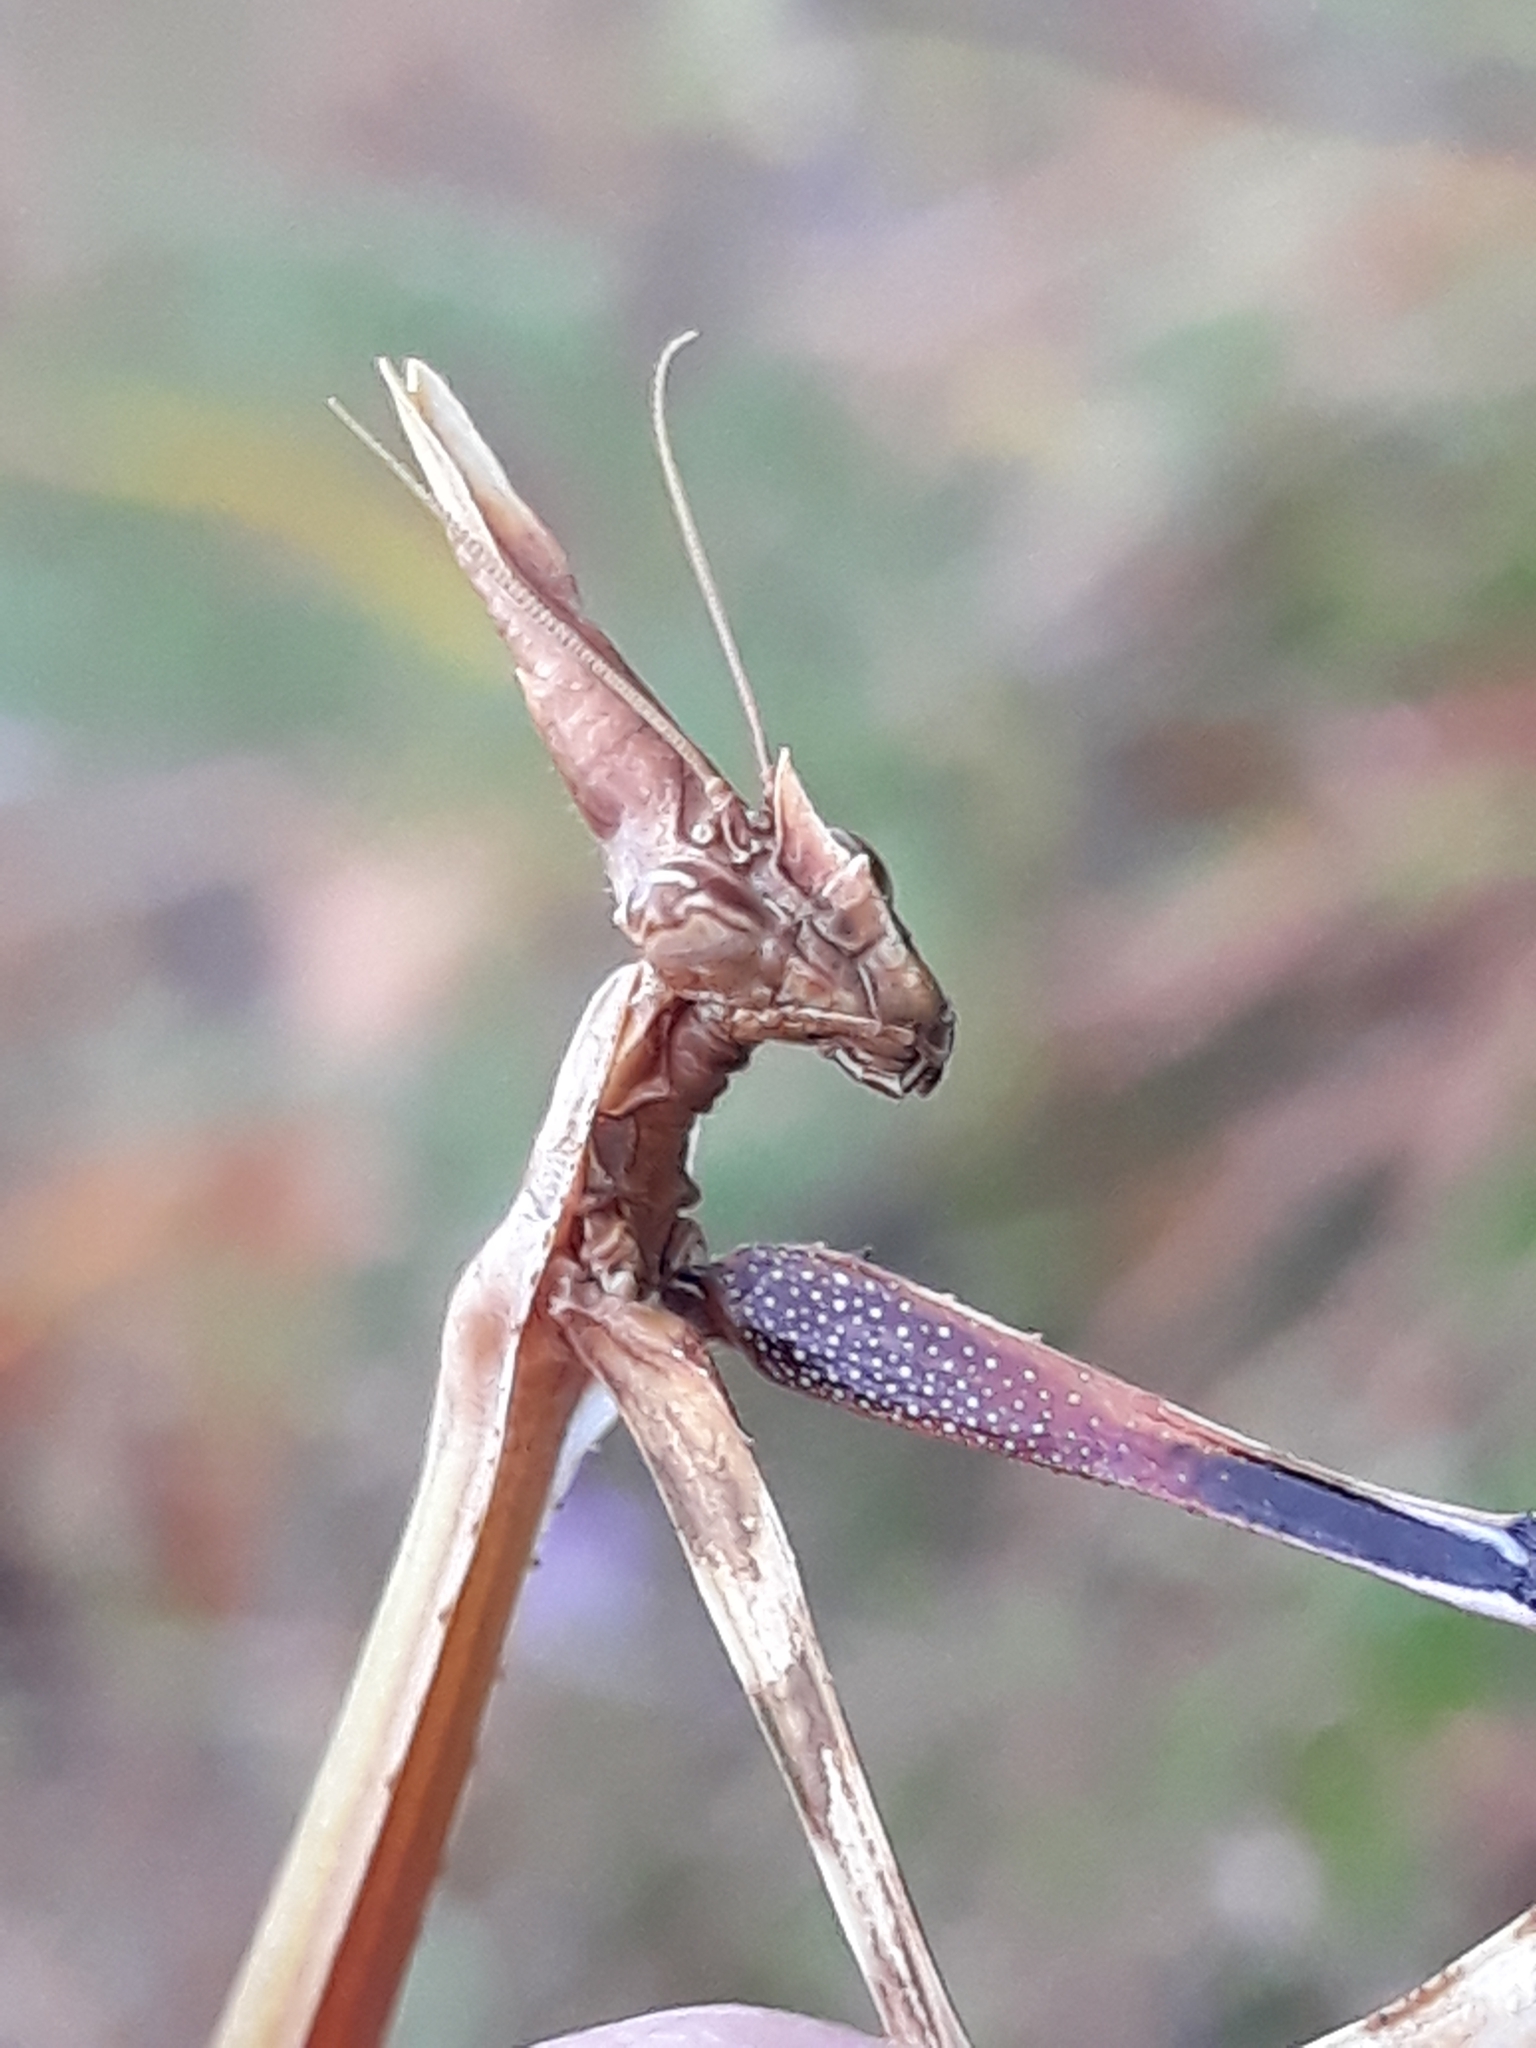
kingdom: Animalia
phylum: Arthropoda
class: Insecta
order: Mantodea
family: Empusidae
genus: Empusa
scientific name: Empusa pennata
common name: Conehead mantis
